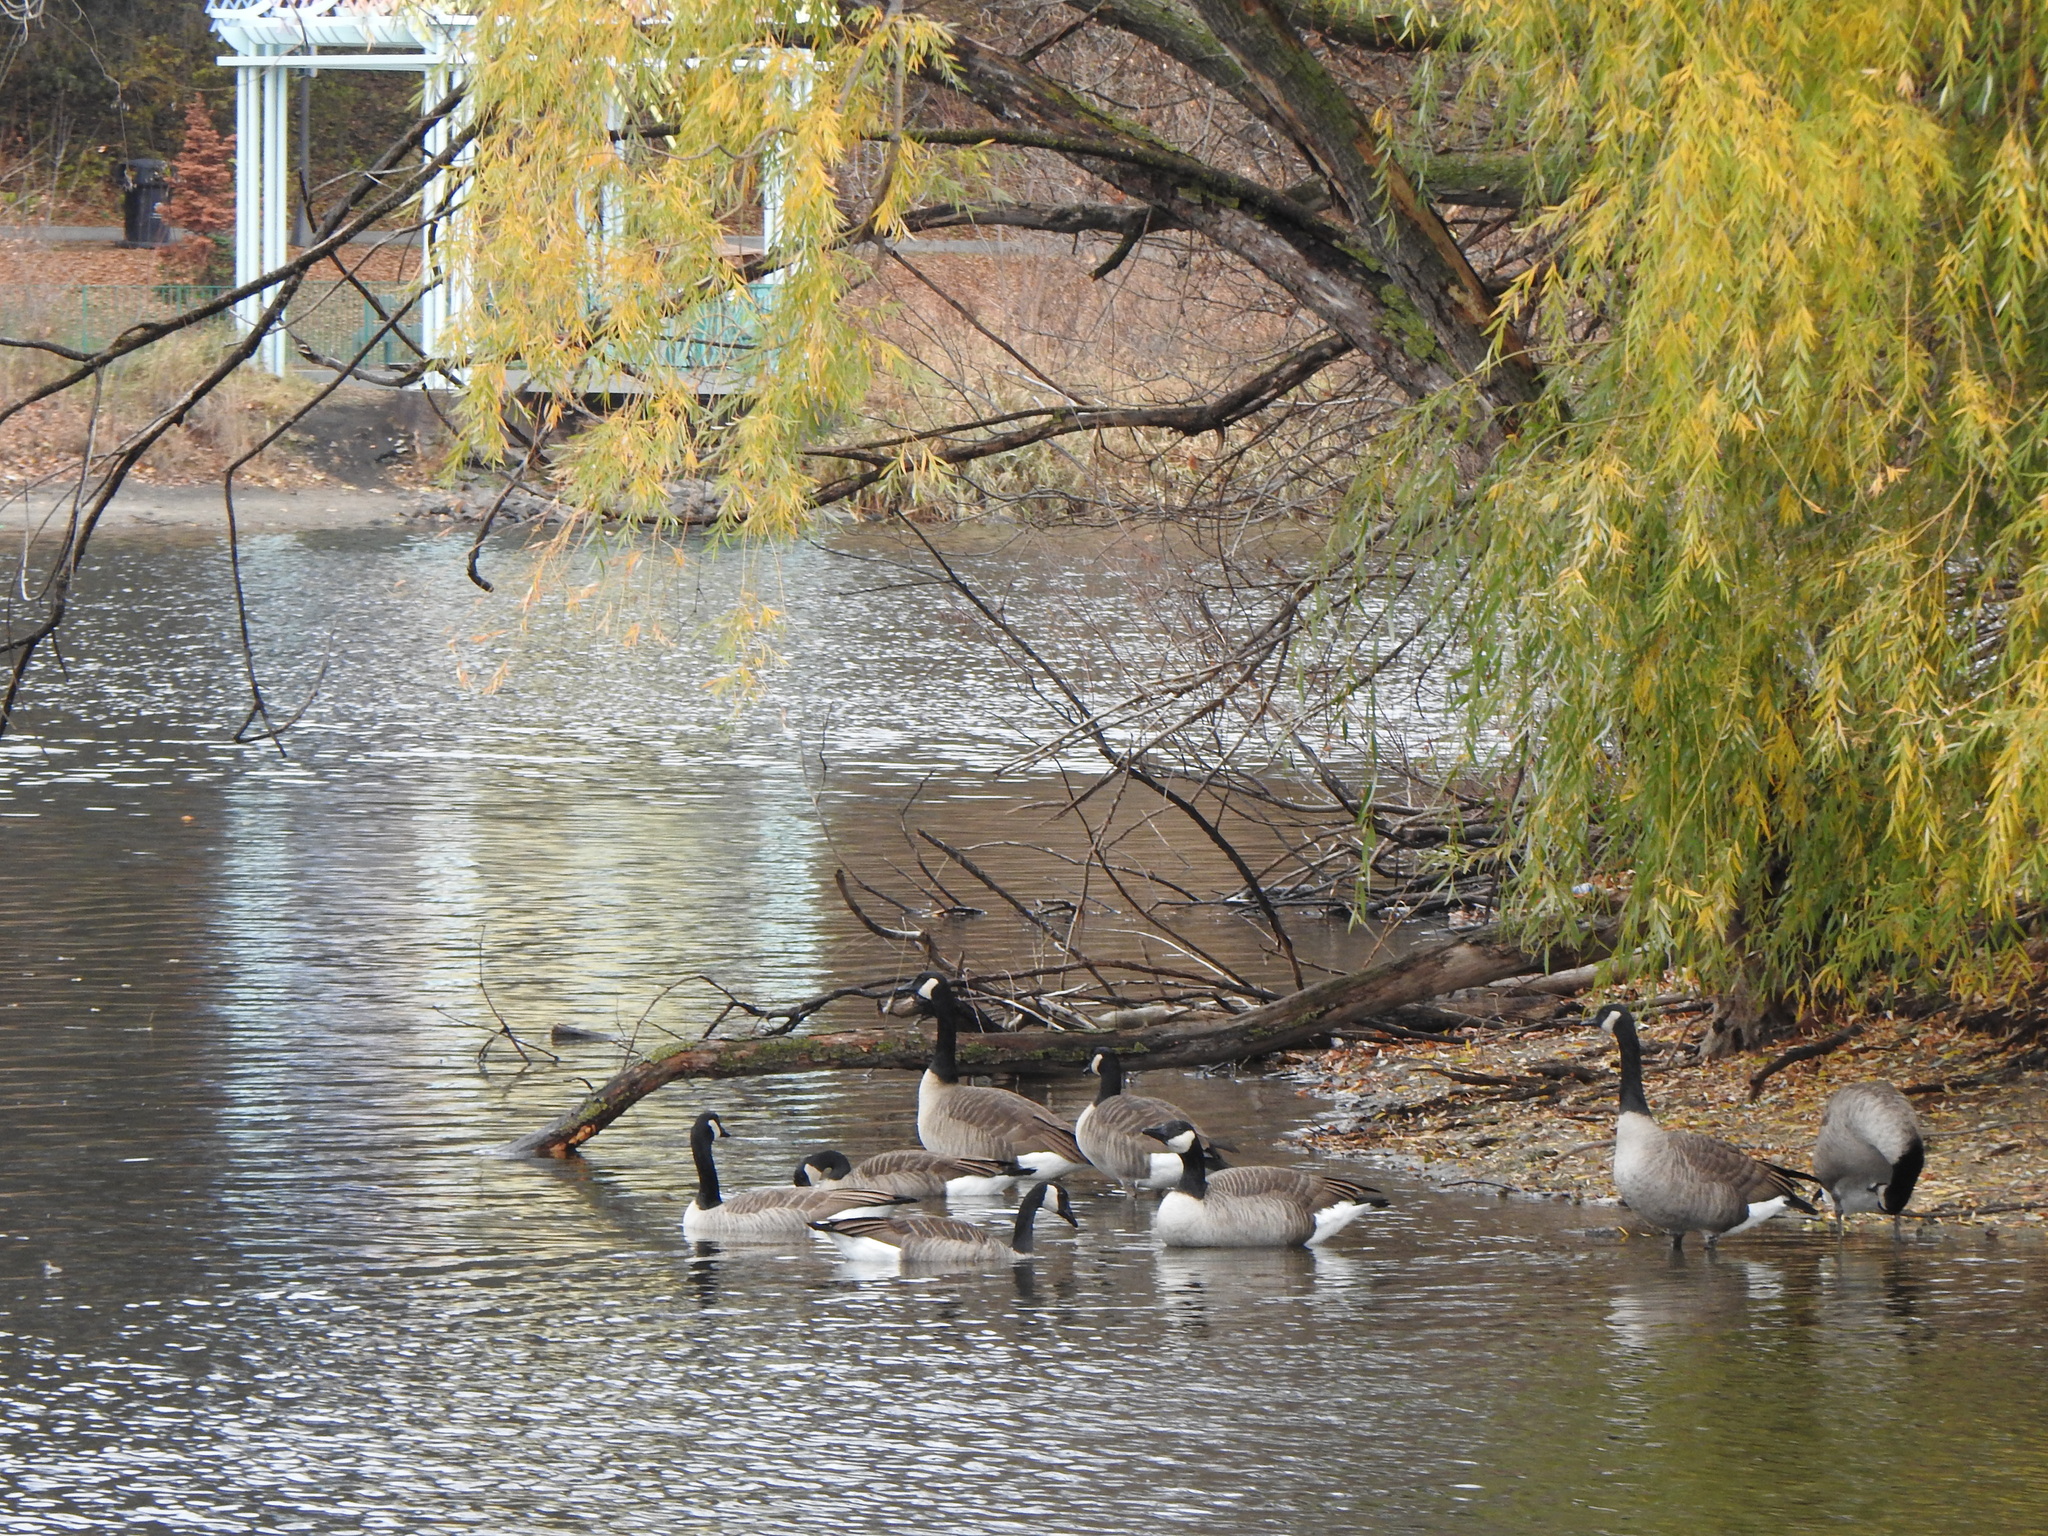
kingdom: Animalia
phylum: Chordata
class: Aves
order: Anseriformes
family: Anatidae
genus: Branta
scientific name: Branta canadensis
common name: Canada goose
